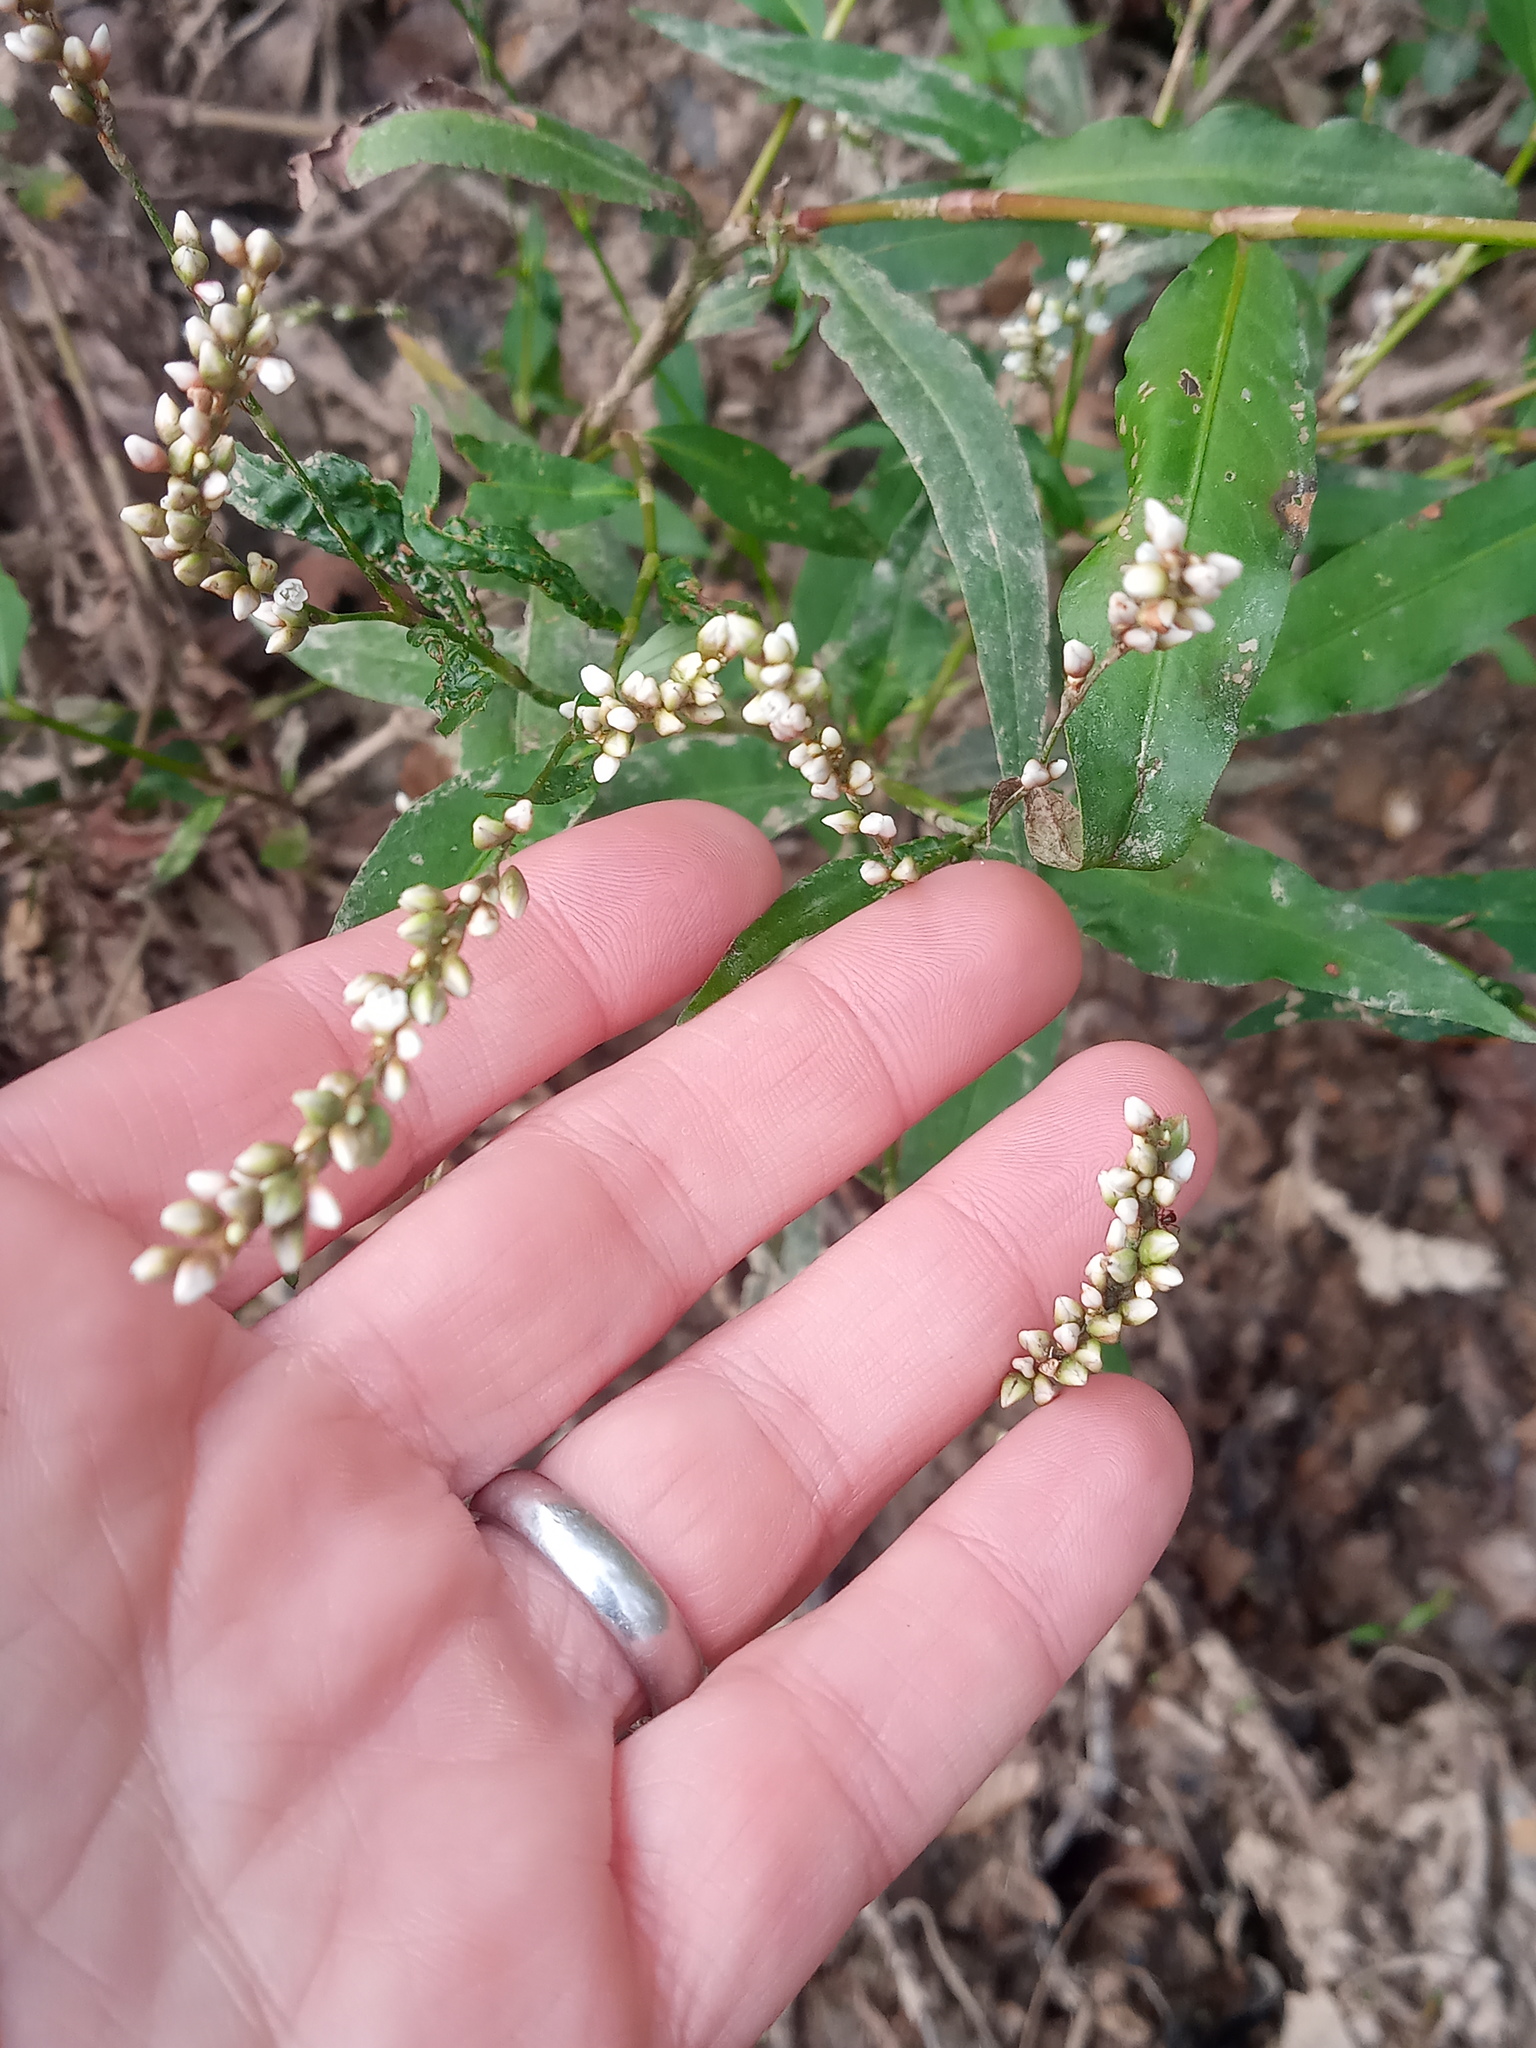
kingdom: Plantae
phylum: Tracheophyta
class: Magnoliopsida
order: Caryophyllales
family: Polygonaceae
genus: Persicaria
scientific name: Persicaria hydropiperoides
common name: Swamp smartweed
